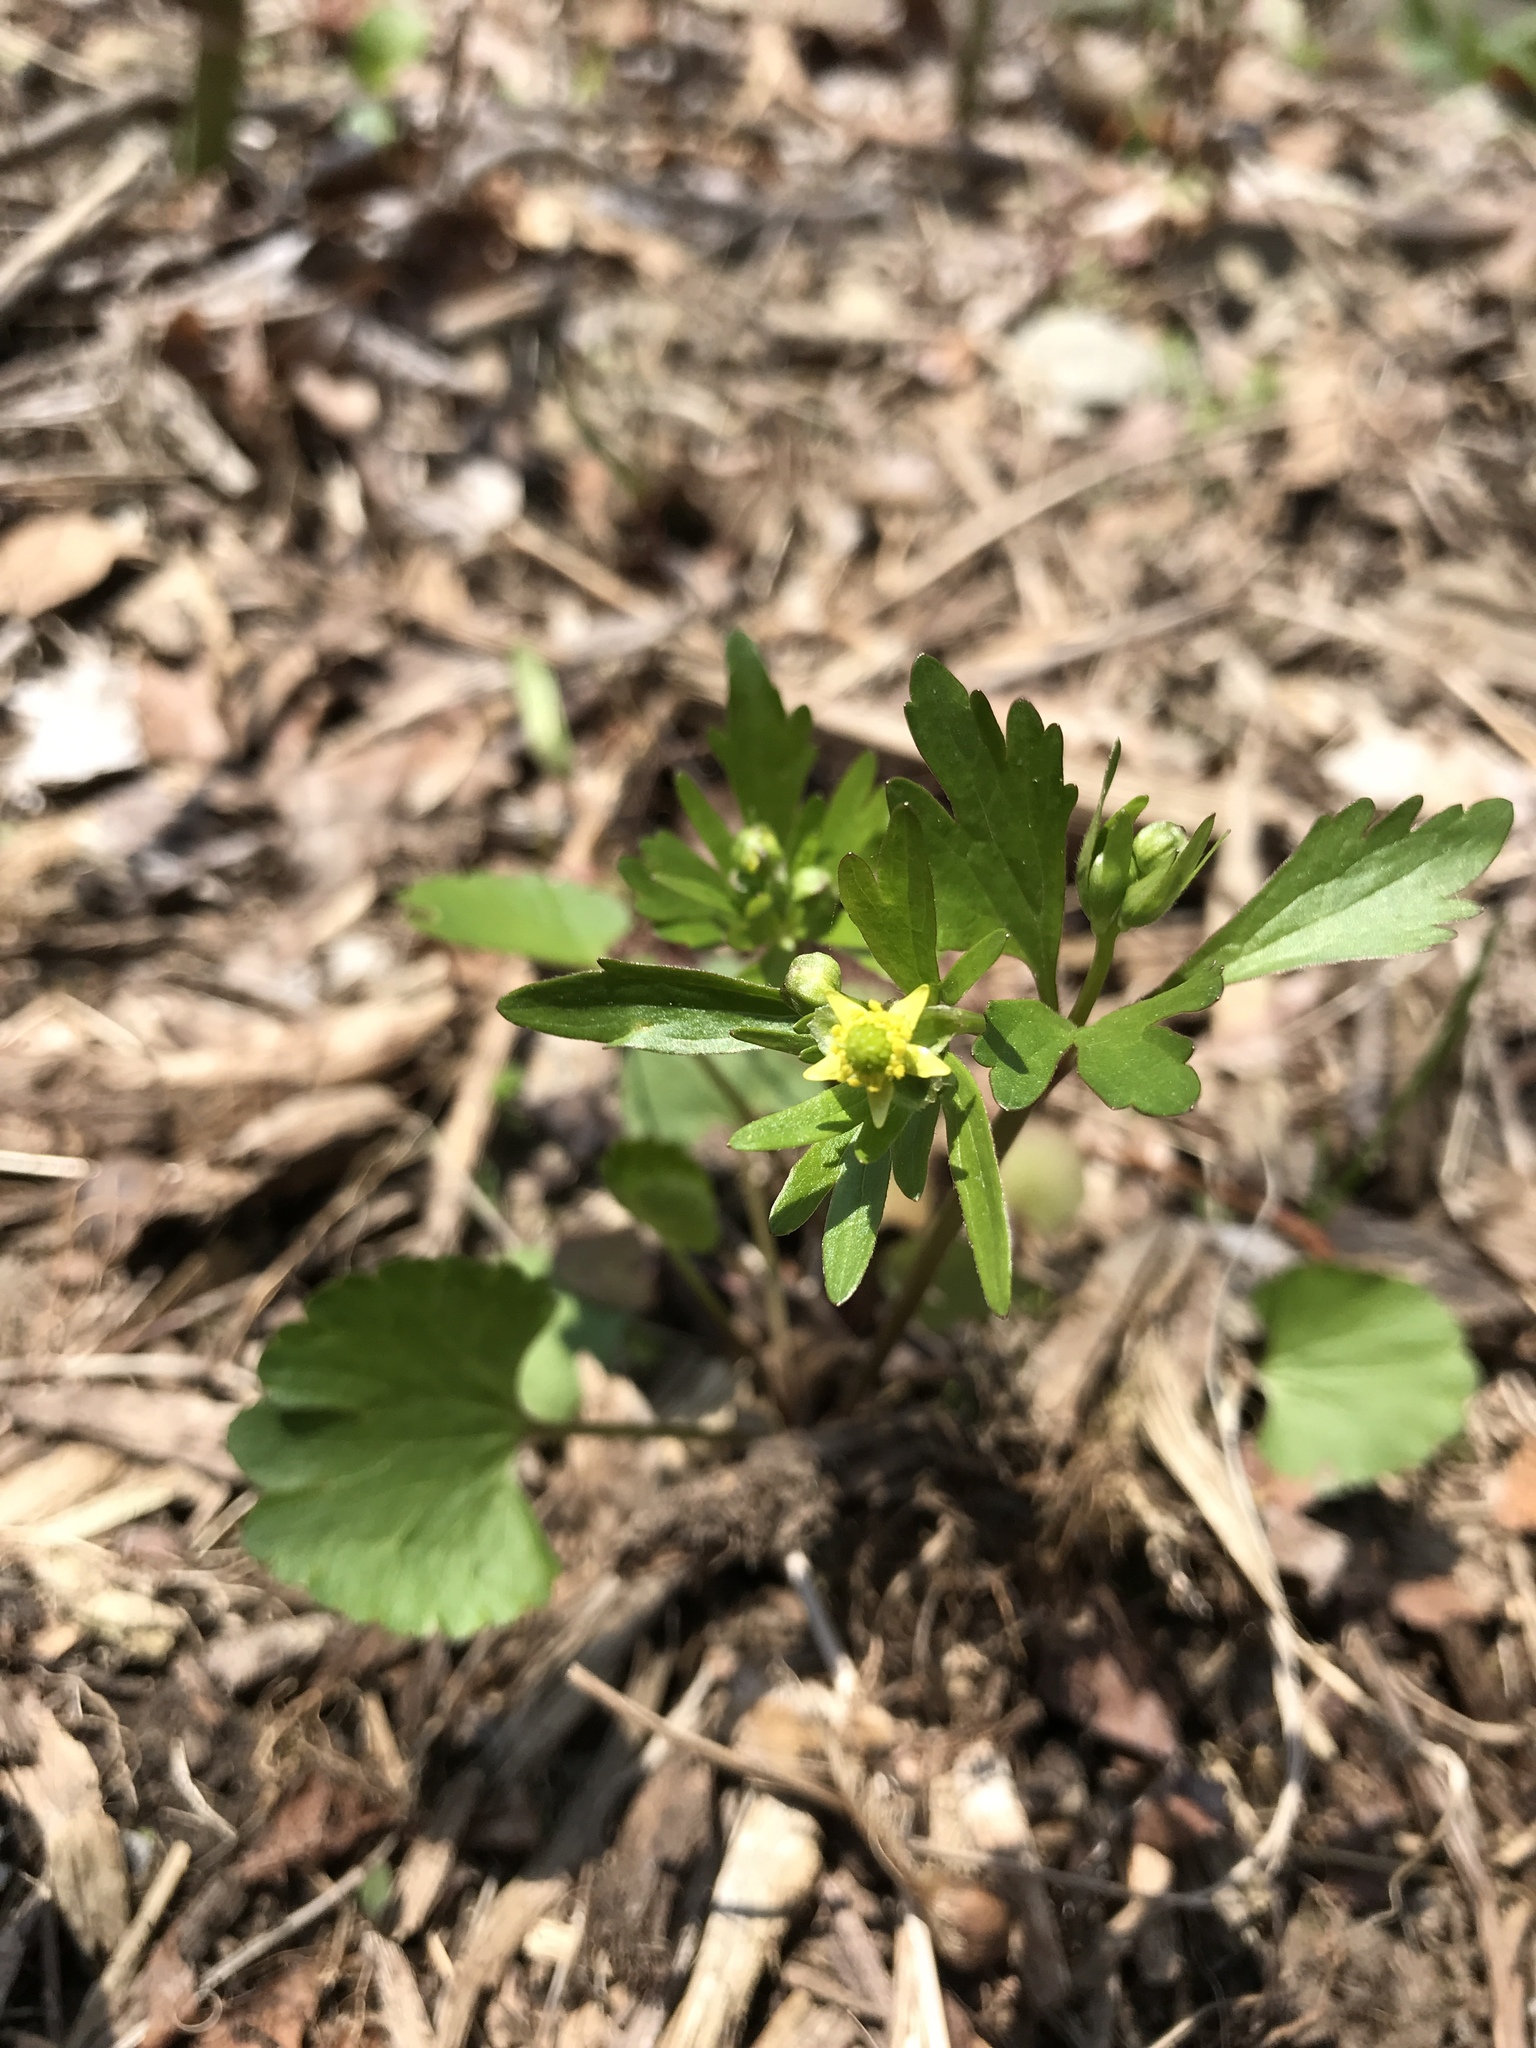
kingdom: Plantae
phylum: Tracheophyta
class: Magnoliopsida
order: Ranunculales
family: Ranunculaceae
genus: Ranunculus
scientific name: Ranunculus abortivus
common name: Early wood buttercup
